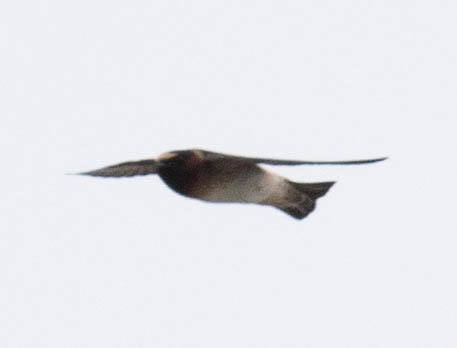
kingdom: Animalia
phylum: Chordata
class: Aves
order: Passeriformes
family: Hirundinidae
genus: Petrochelidon
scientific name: Petrochelidon pyrrhonota
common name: American cliff swallow
